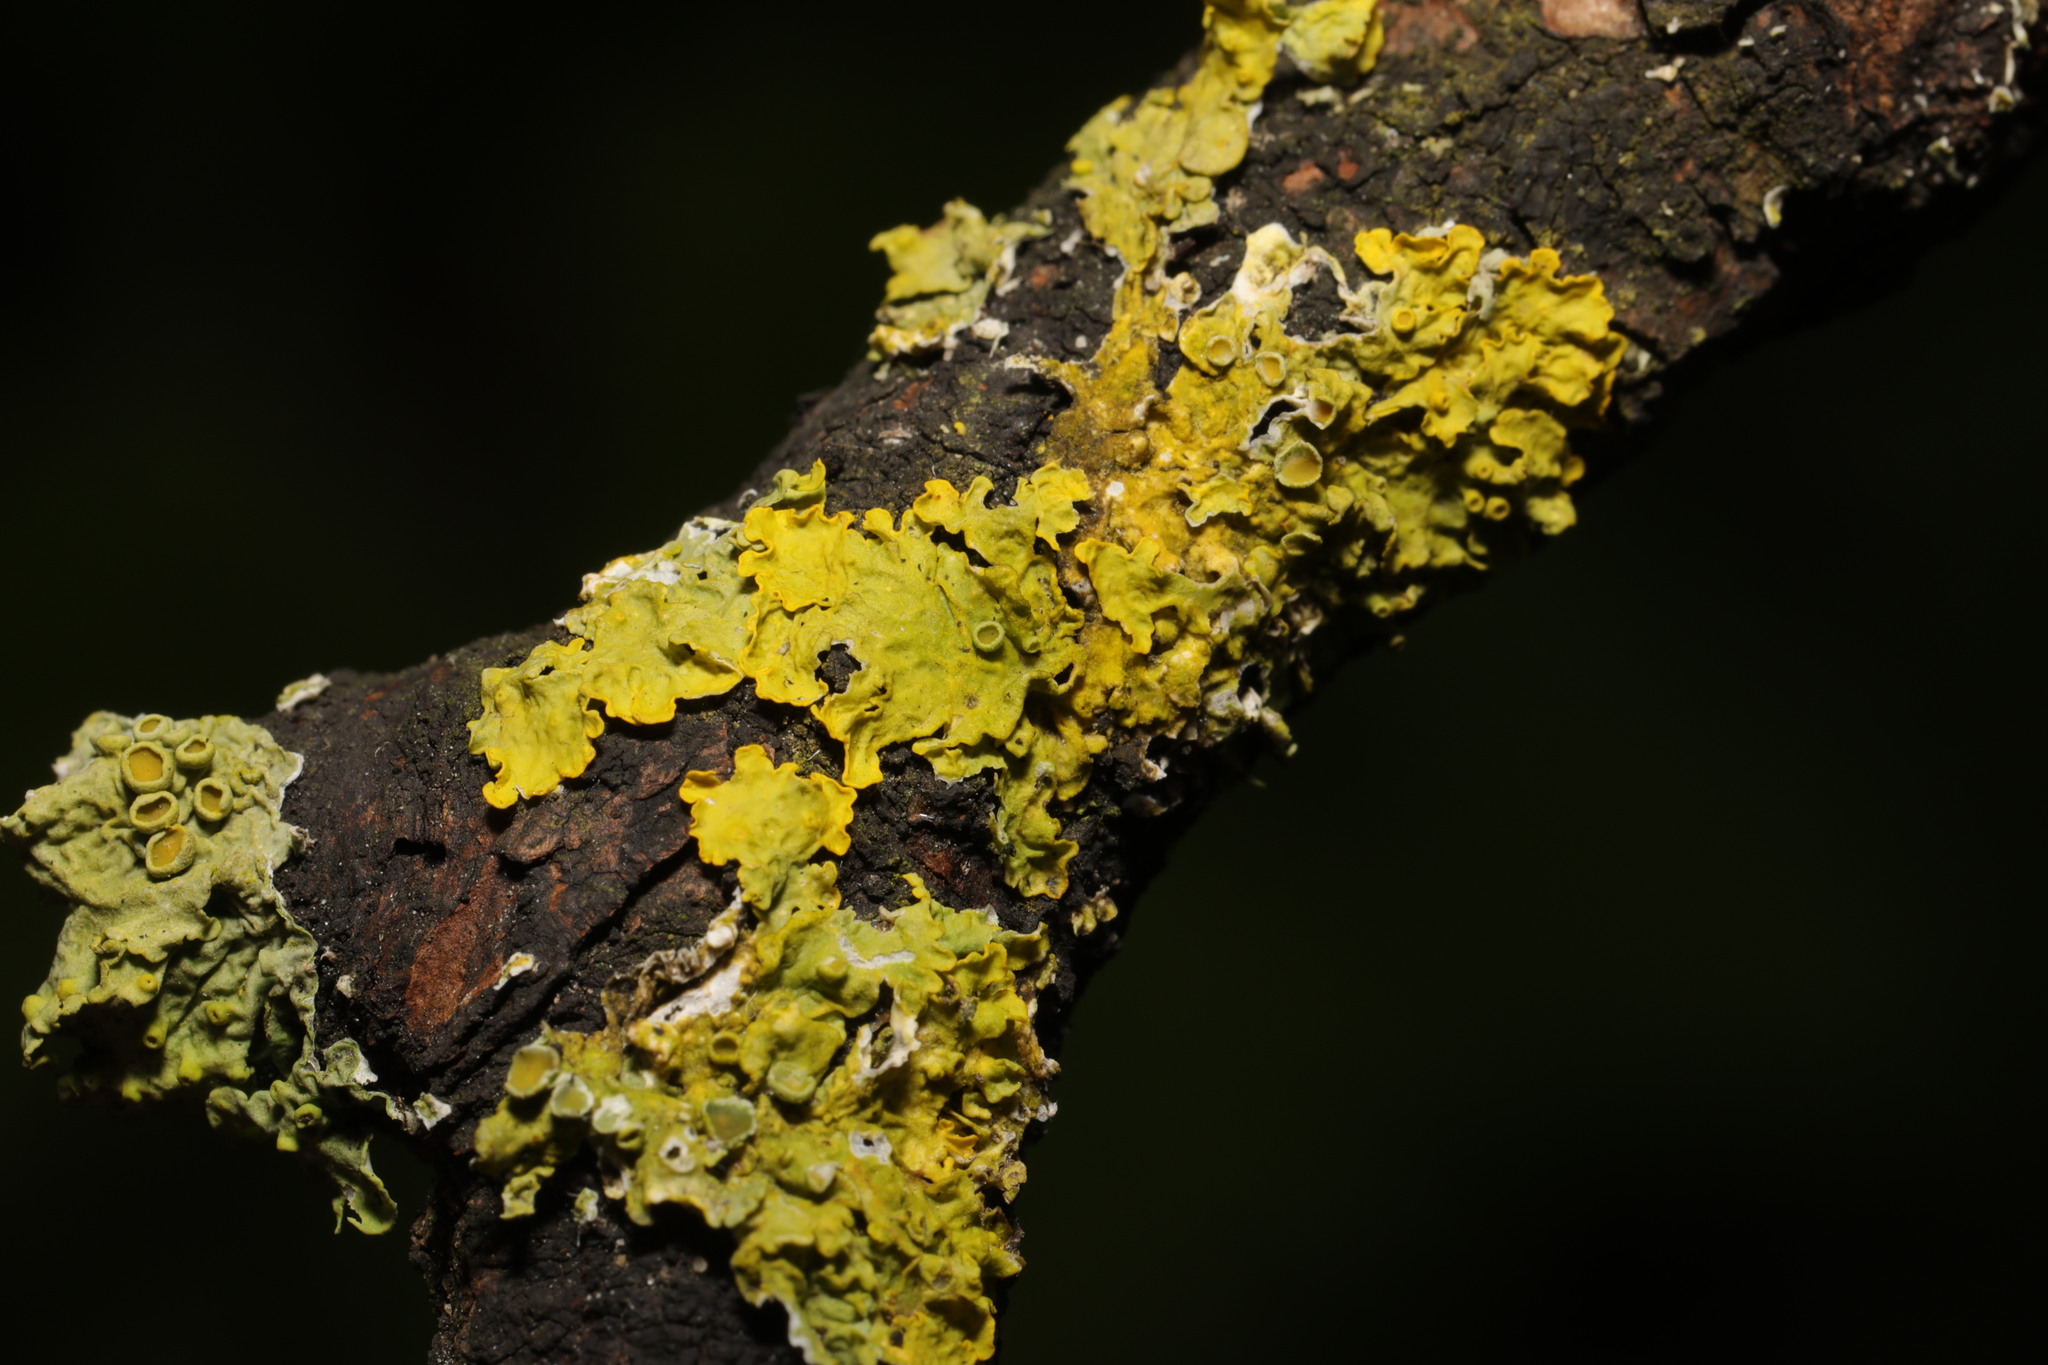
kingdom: Fungi
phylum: Ascomycota
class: Lecanoromycetes
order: Teloschistales
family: Teloschistaceae
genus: Xanthoria
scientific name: Xanthoria parietina
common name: Common orange lichen
